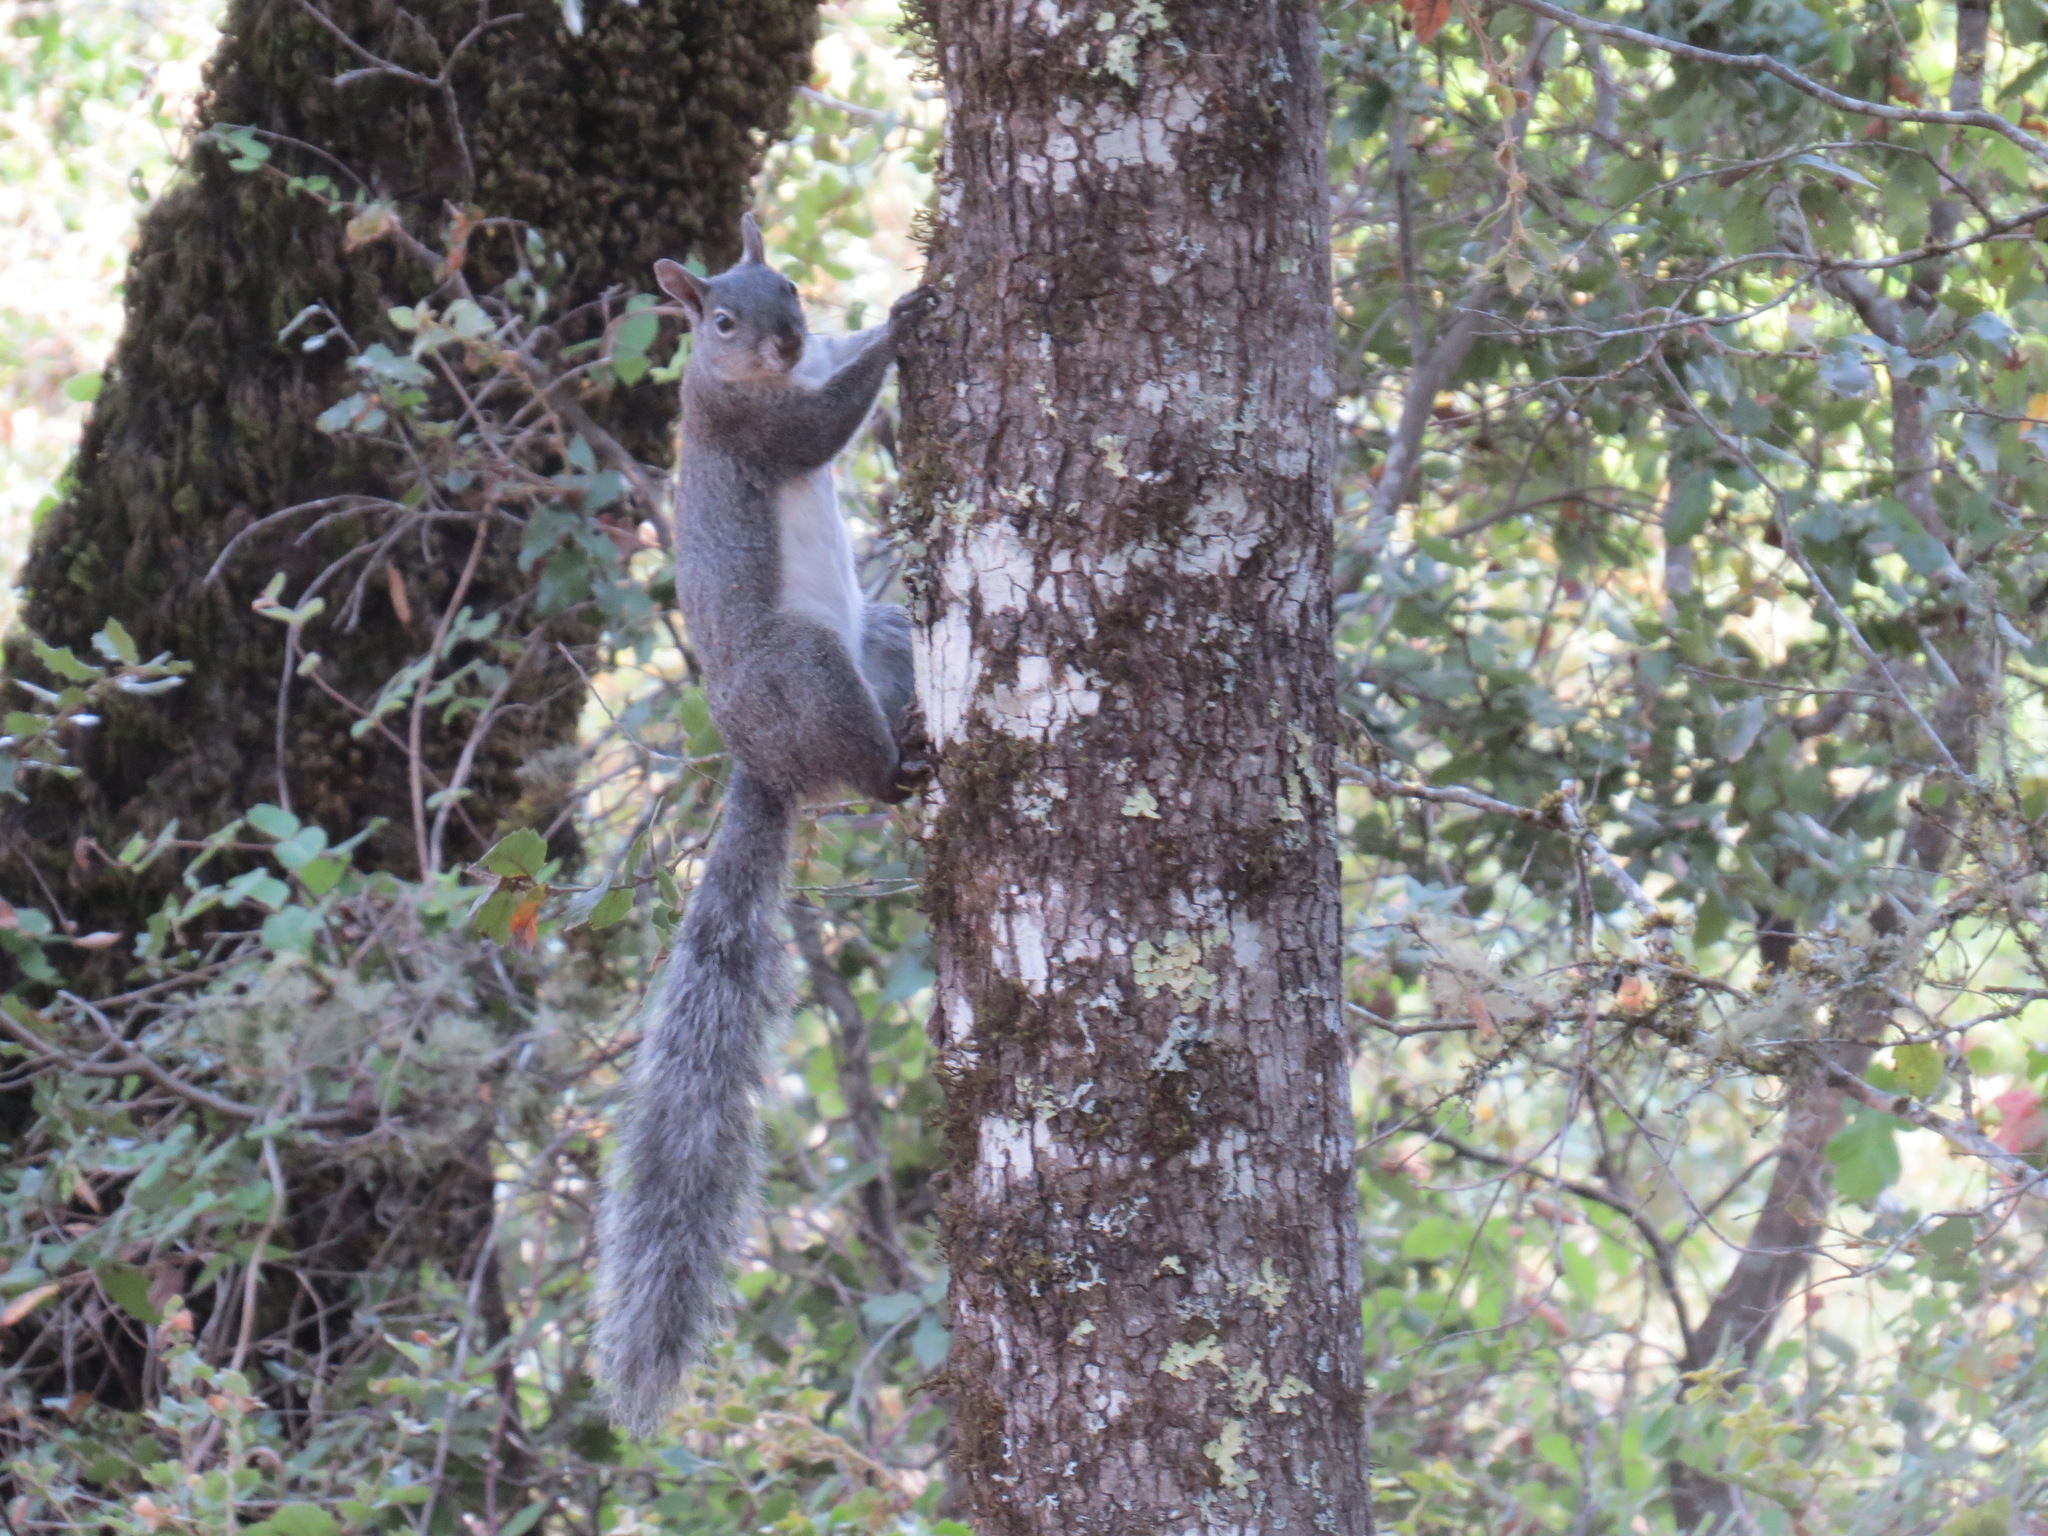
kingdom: Animalia
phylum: Chordata
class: Mammalia
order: Rodentia
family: Sciuridae
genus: Sciurus
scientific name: Sciurus griseus
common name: Western gray squirrel
